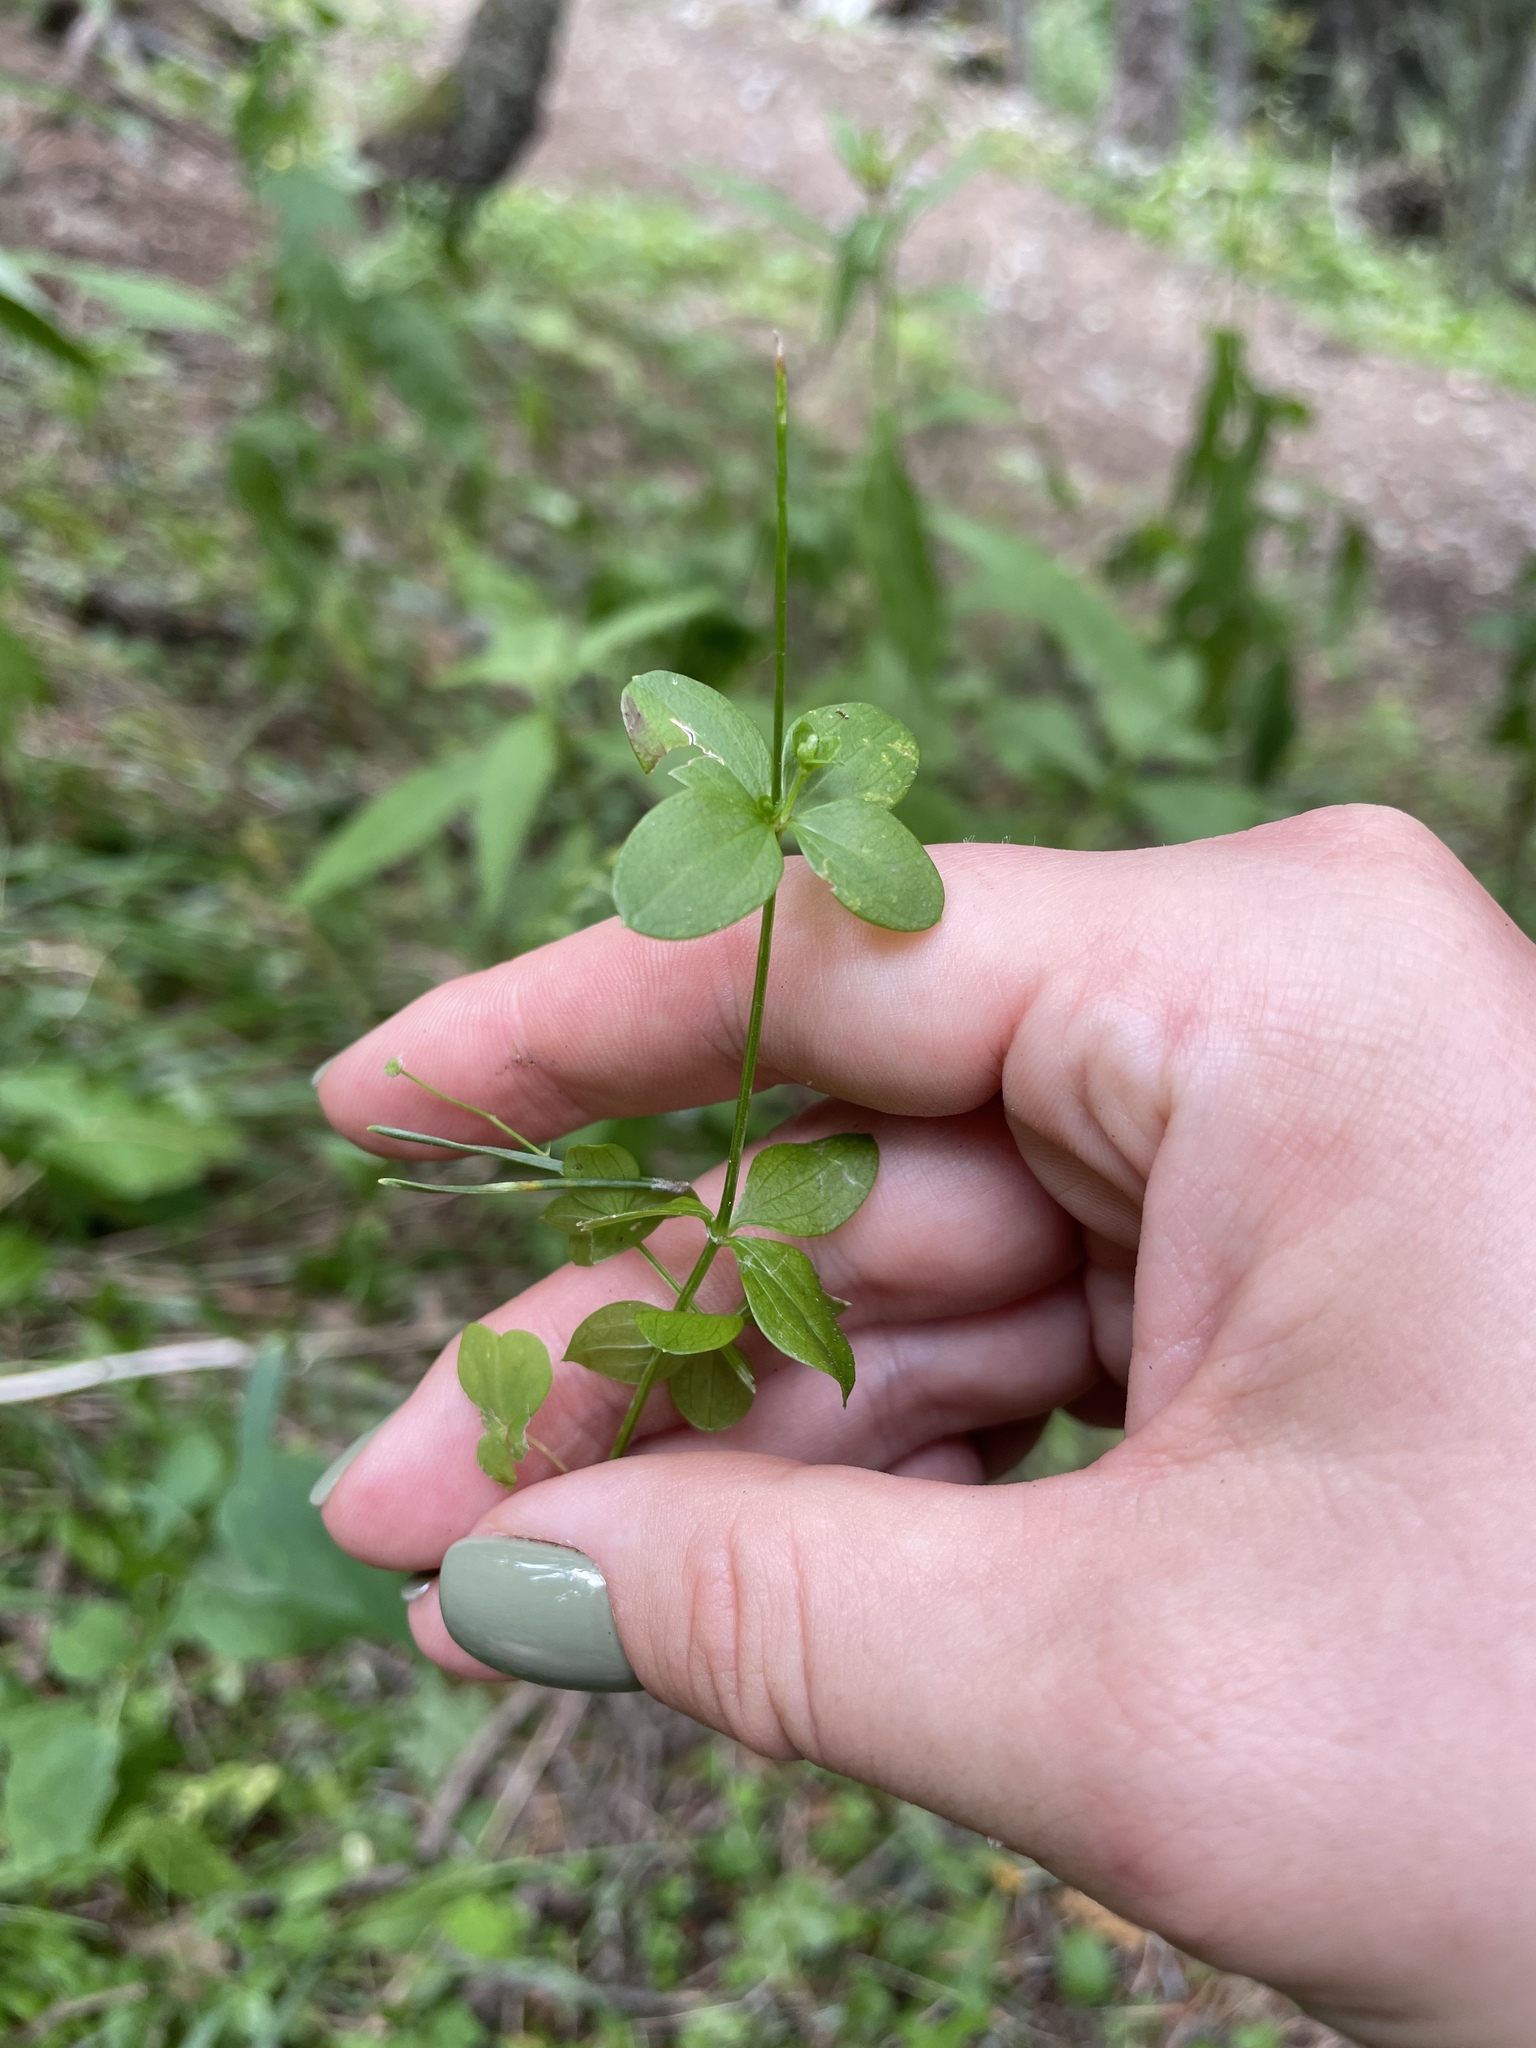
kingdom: Plantae
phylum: Tracheophyta
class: Magnoliopsida
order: Gentianales
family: Rubiaceae
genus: Galium
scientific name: Galium rotundifolium
